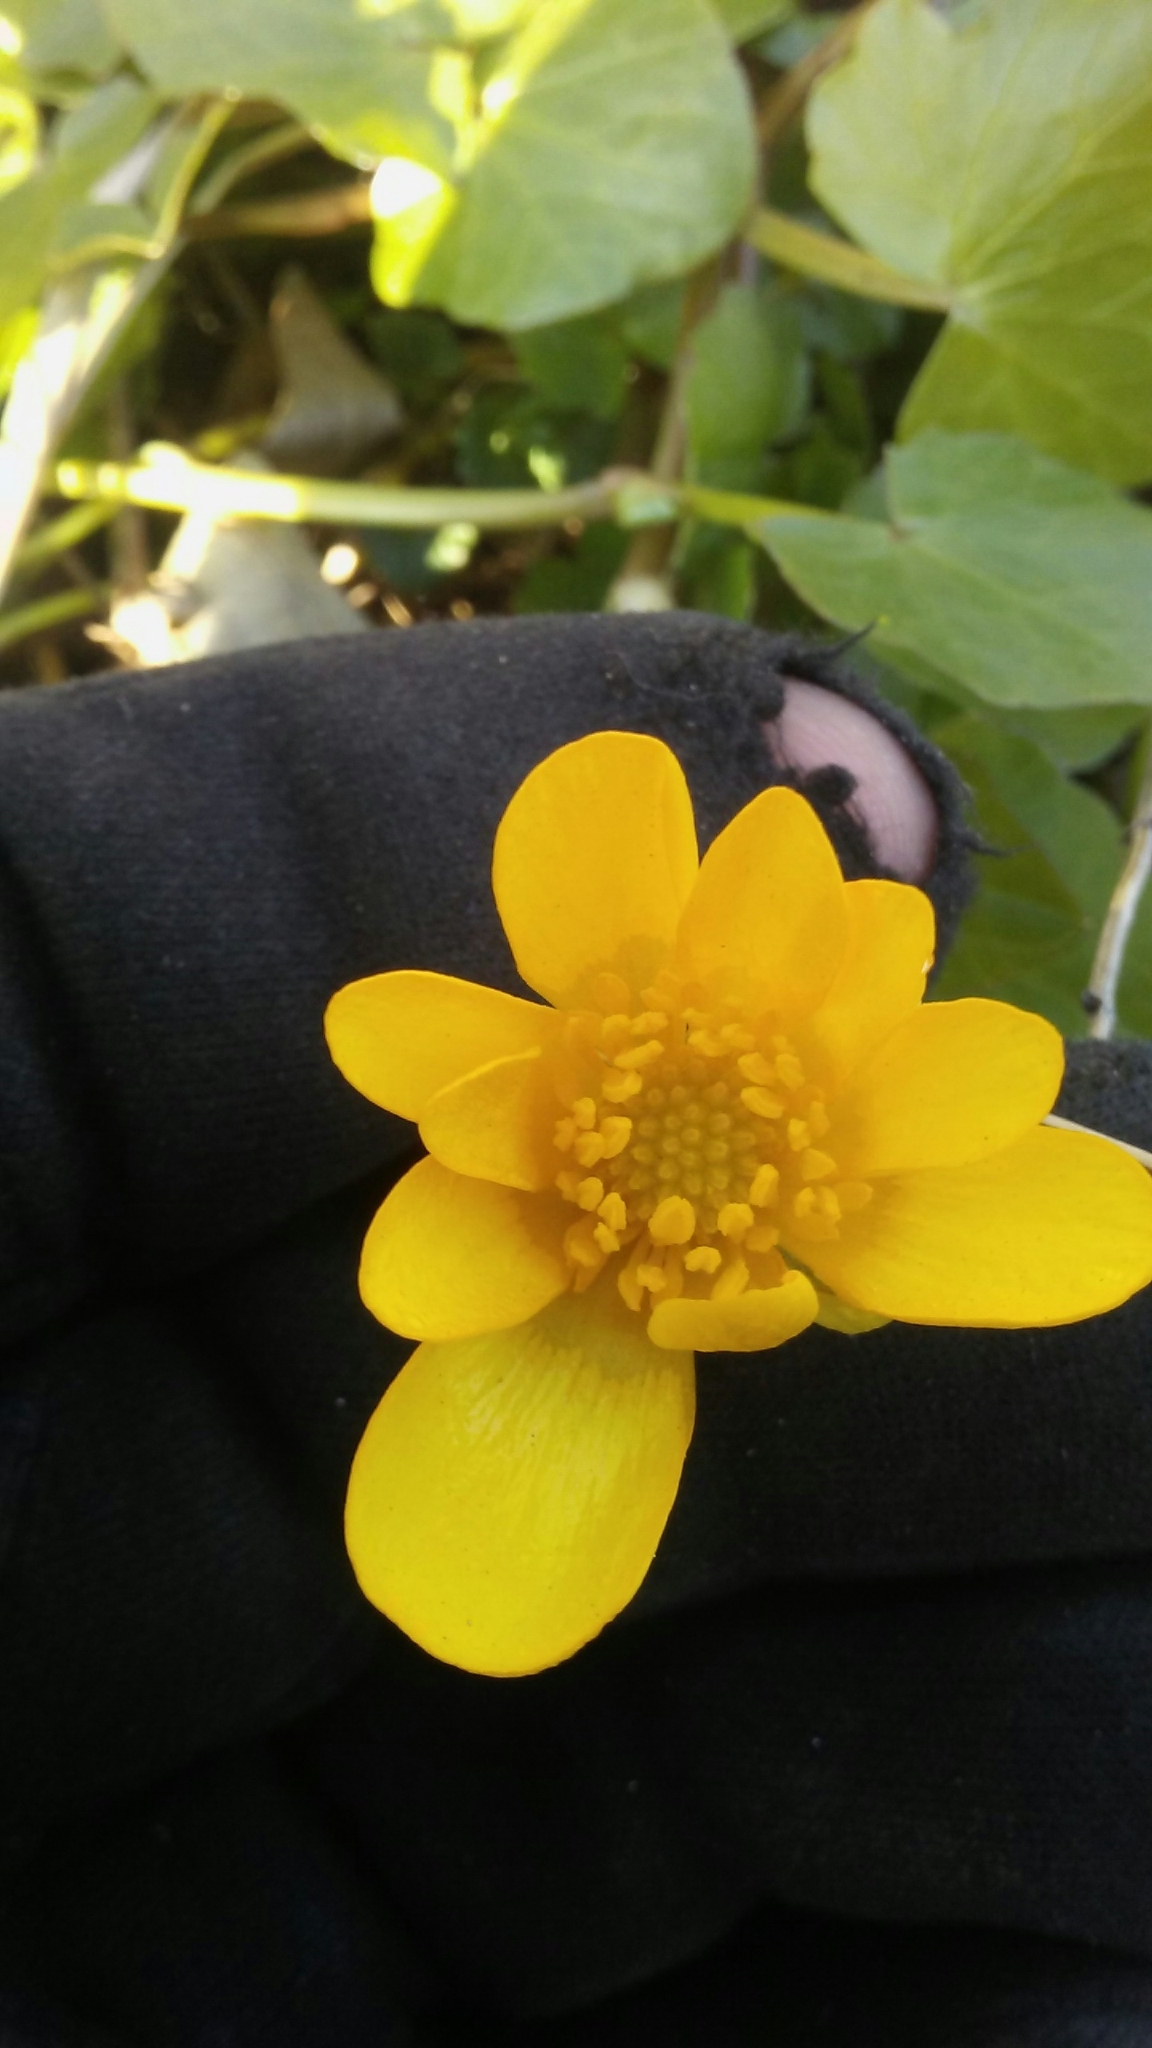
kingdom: Plantae
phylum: Tracheophyta
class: Magnoliopsida
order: Ranunculales
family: Ranunculaceae
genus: Ficaria
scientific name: Ficaria verna
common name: Lesser celandine
